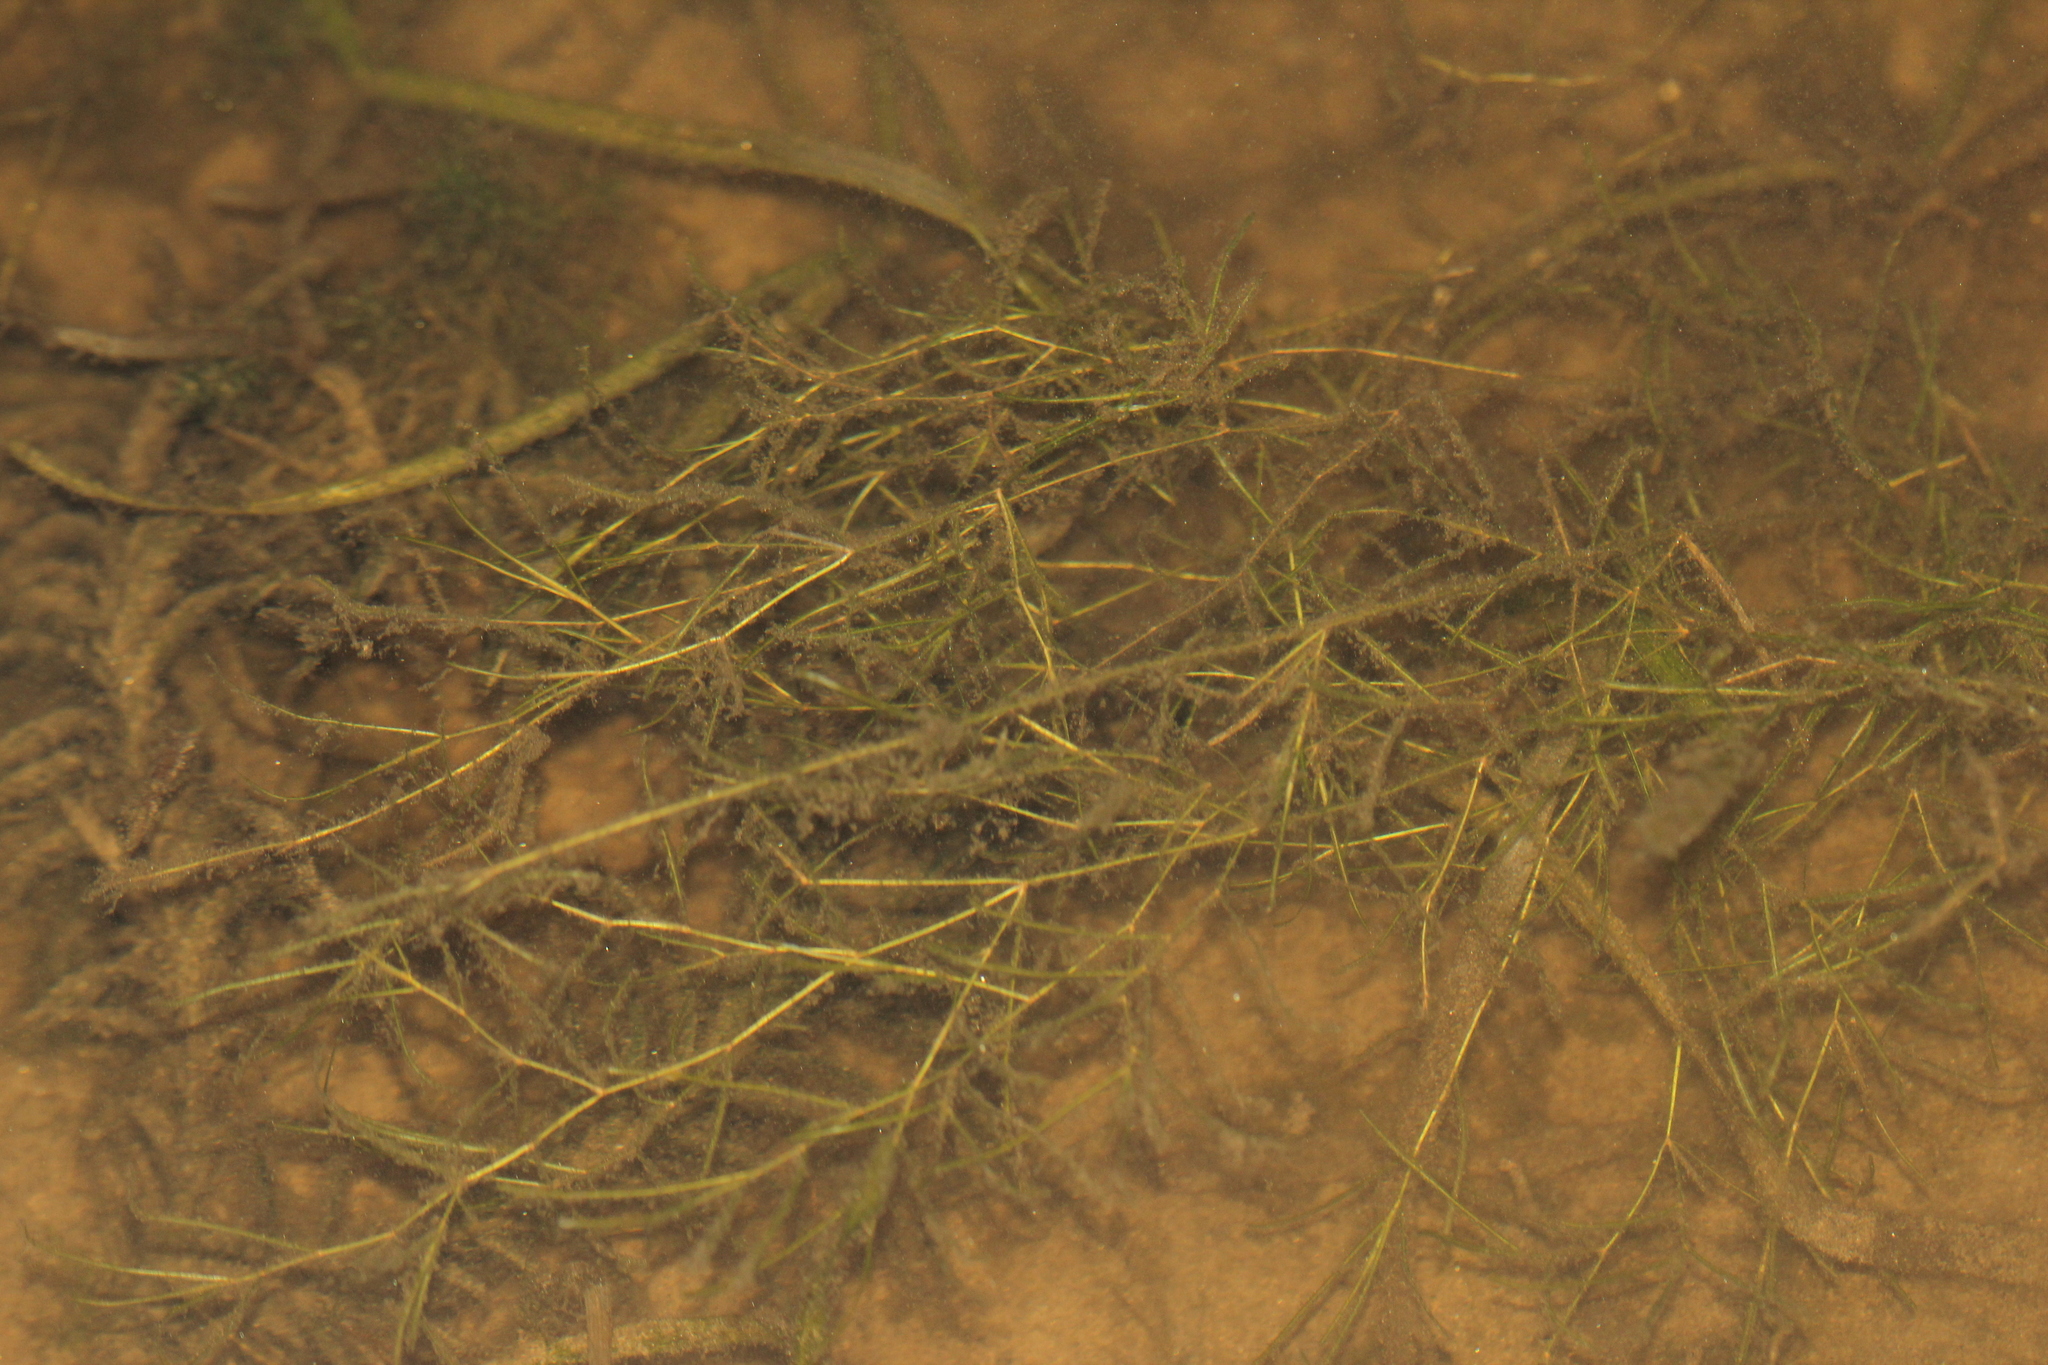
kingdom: Plantae
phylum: Tracheophyta
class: Liliopsida
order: Alismatales
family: Potamogetonaceae
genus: Potamogeton
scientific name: Potamogeton berchtoldii
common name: Small pondweed
